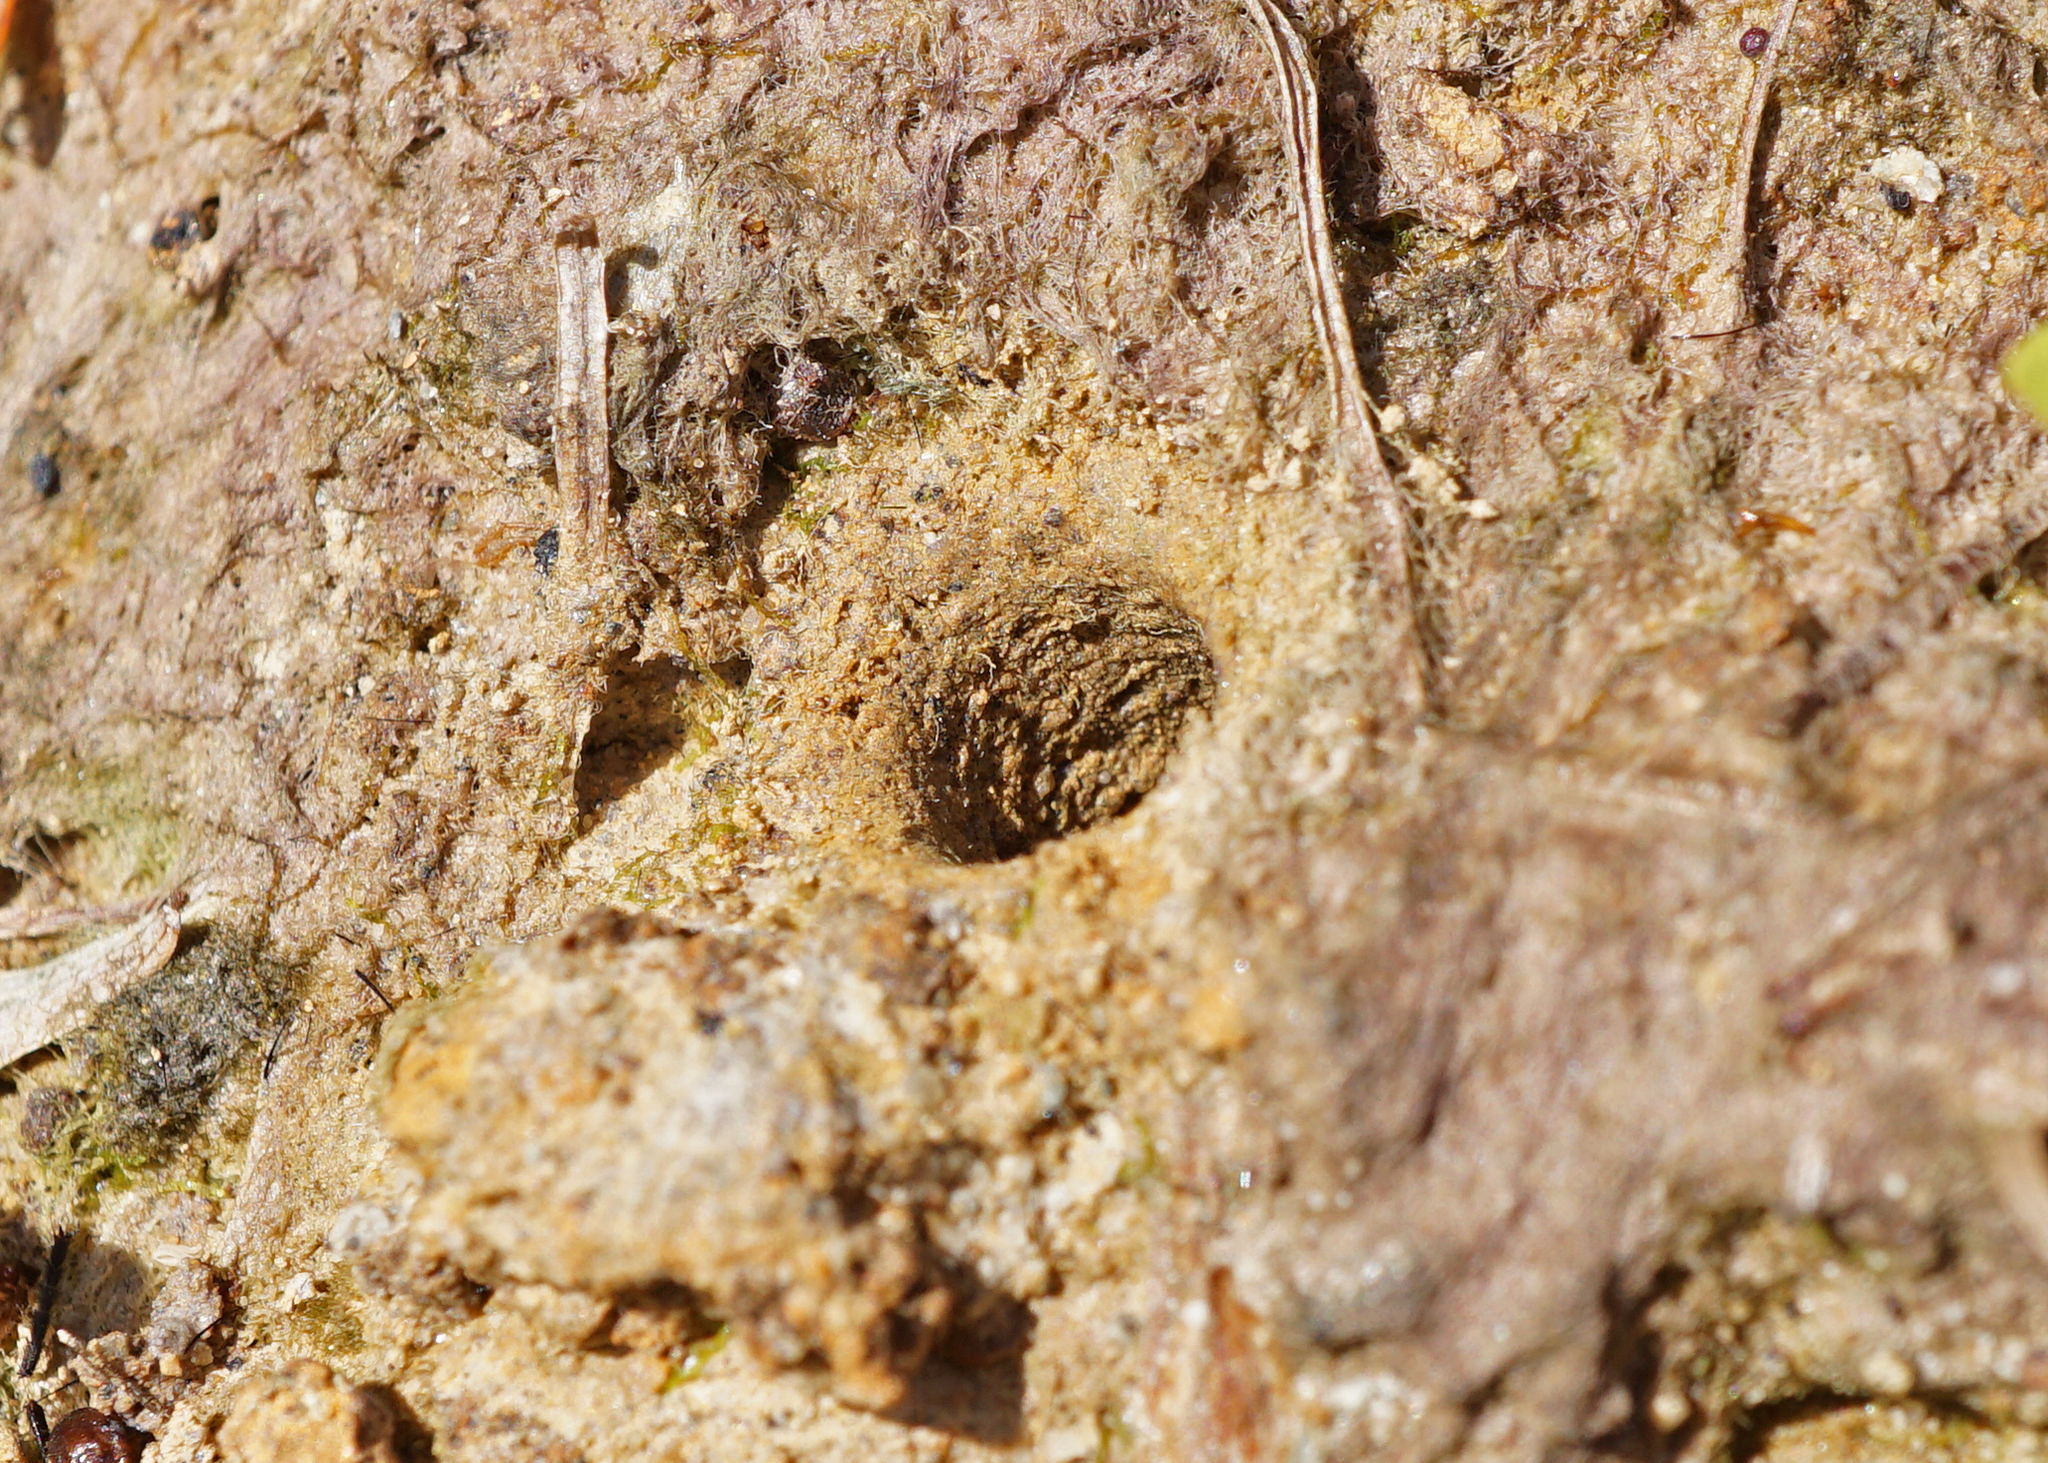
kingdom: Animalia
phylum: Arthropoda
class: Insecta
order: Coleoptera
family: Carabidae
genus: Cicindela
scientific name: Cicindela campestris
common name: Common tiger beetle
